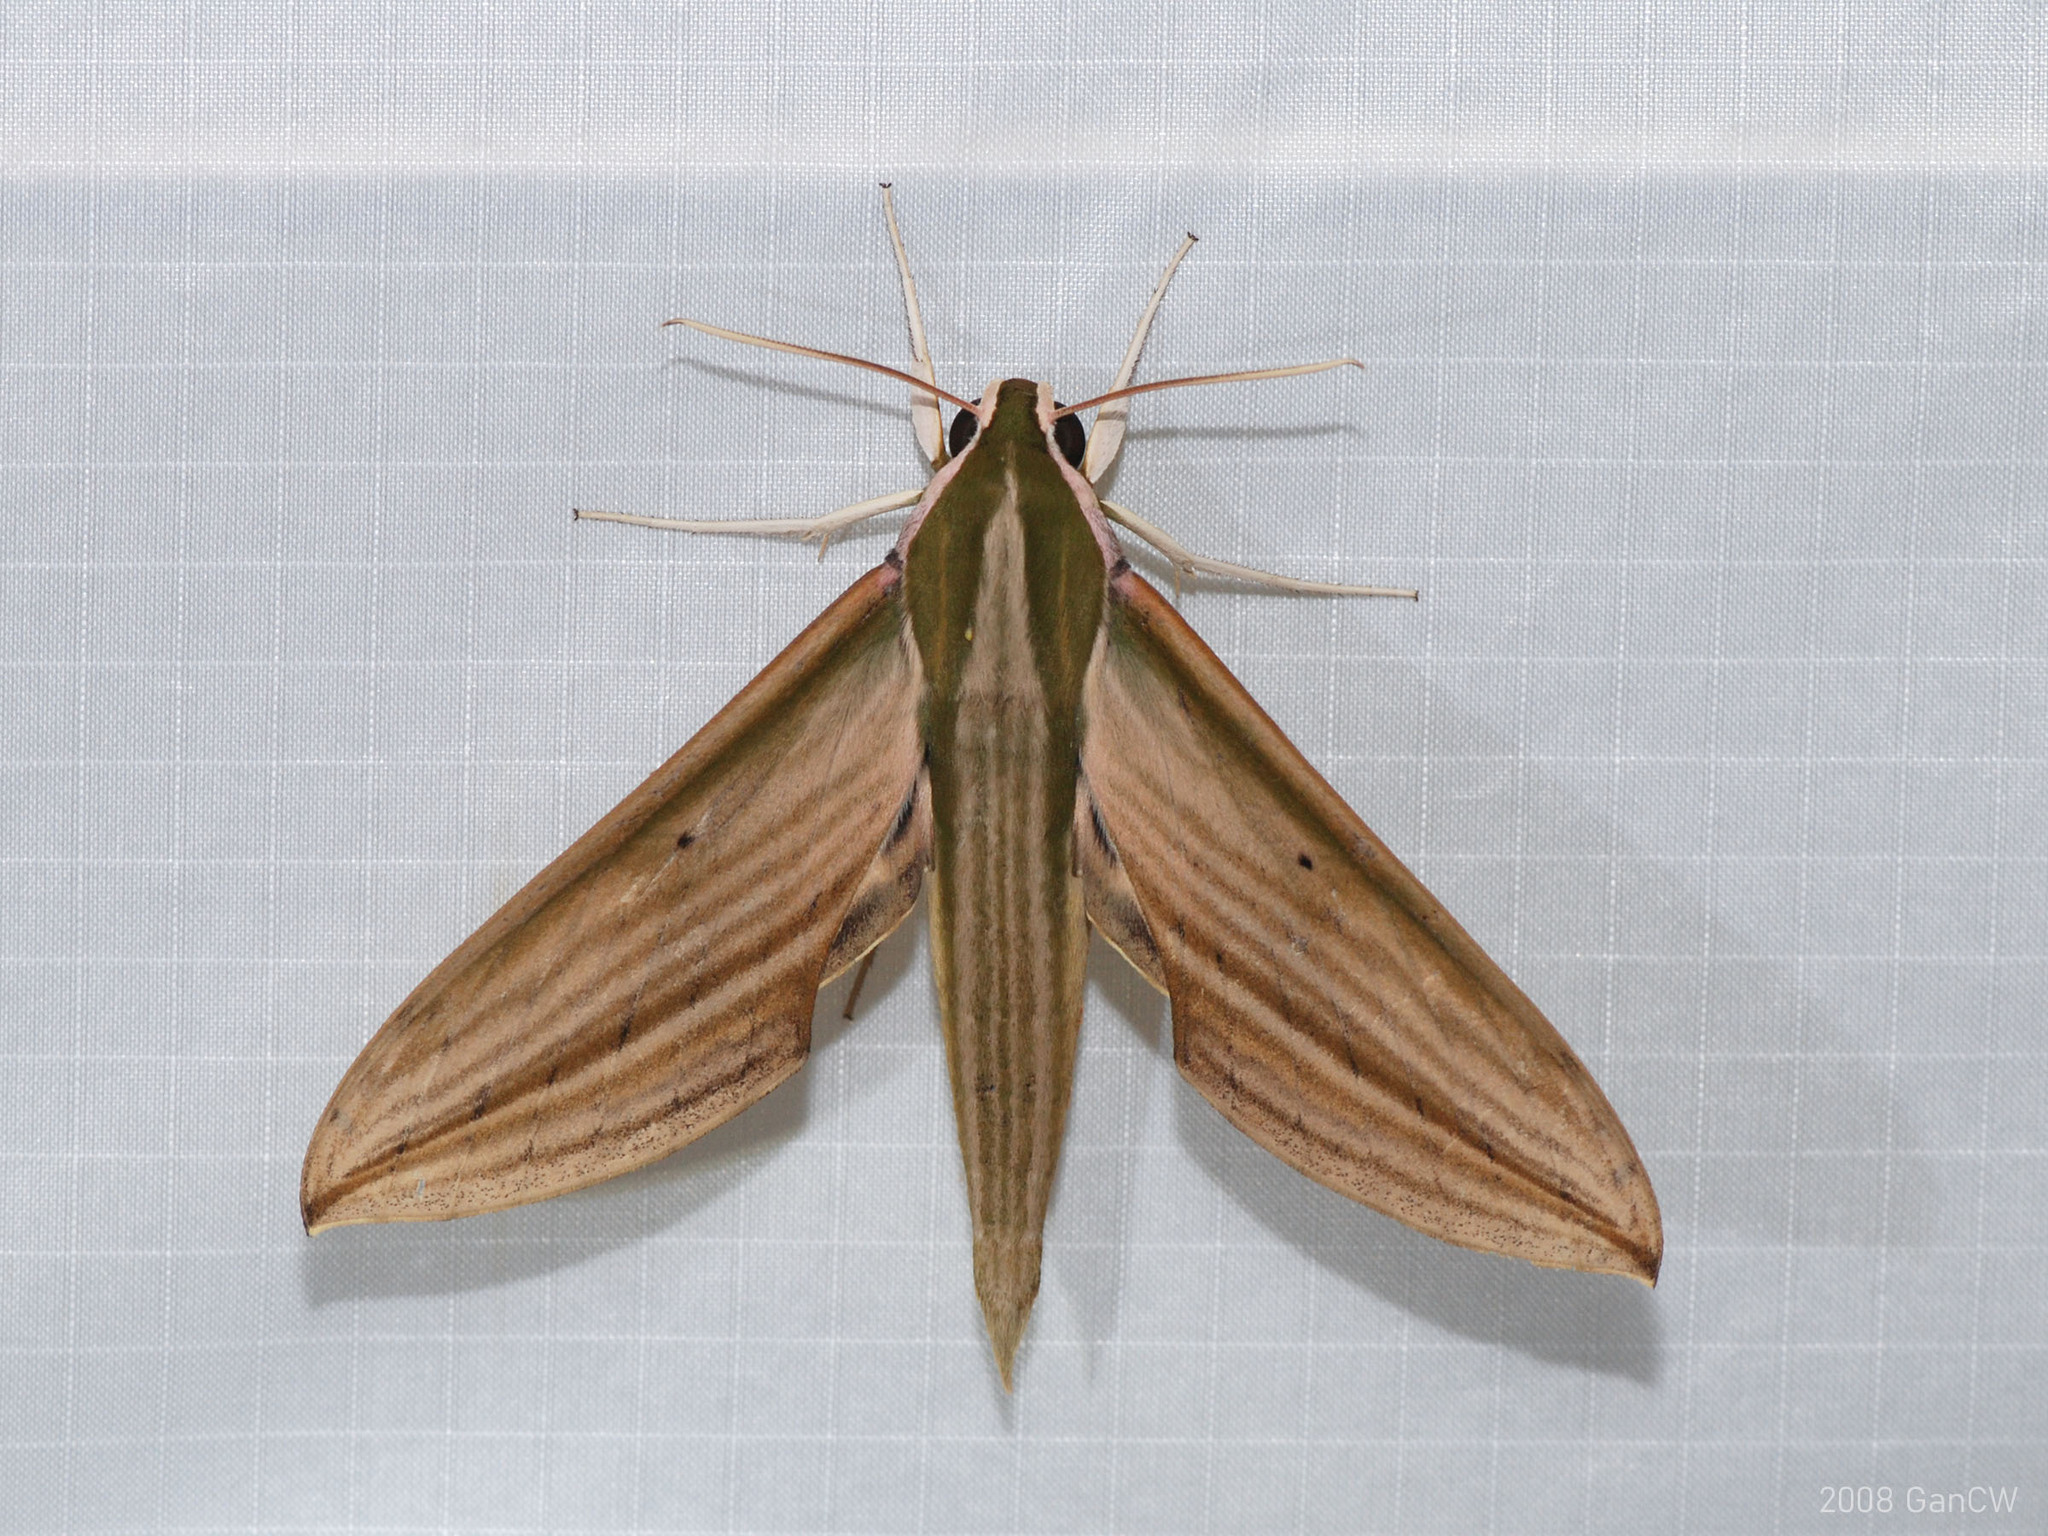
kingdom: Animalia
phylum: Arthropoda
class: Insecta
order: Lepidoptera
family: Sphingidae
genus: Cechetra
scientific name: Cechetra lineosa
